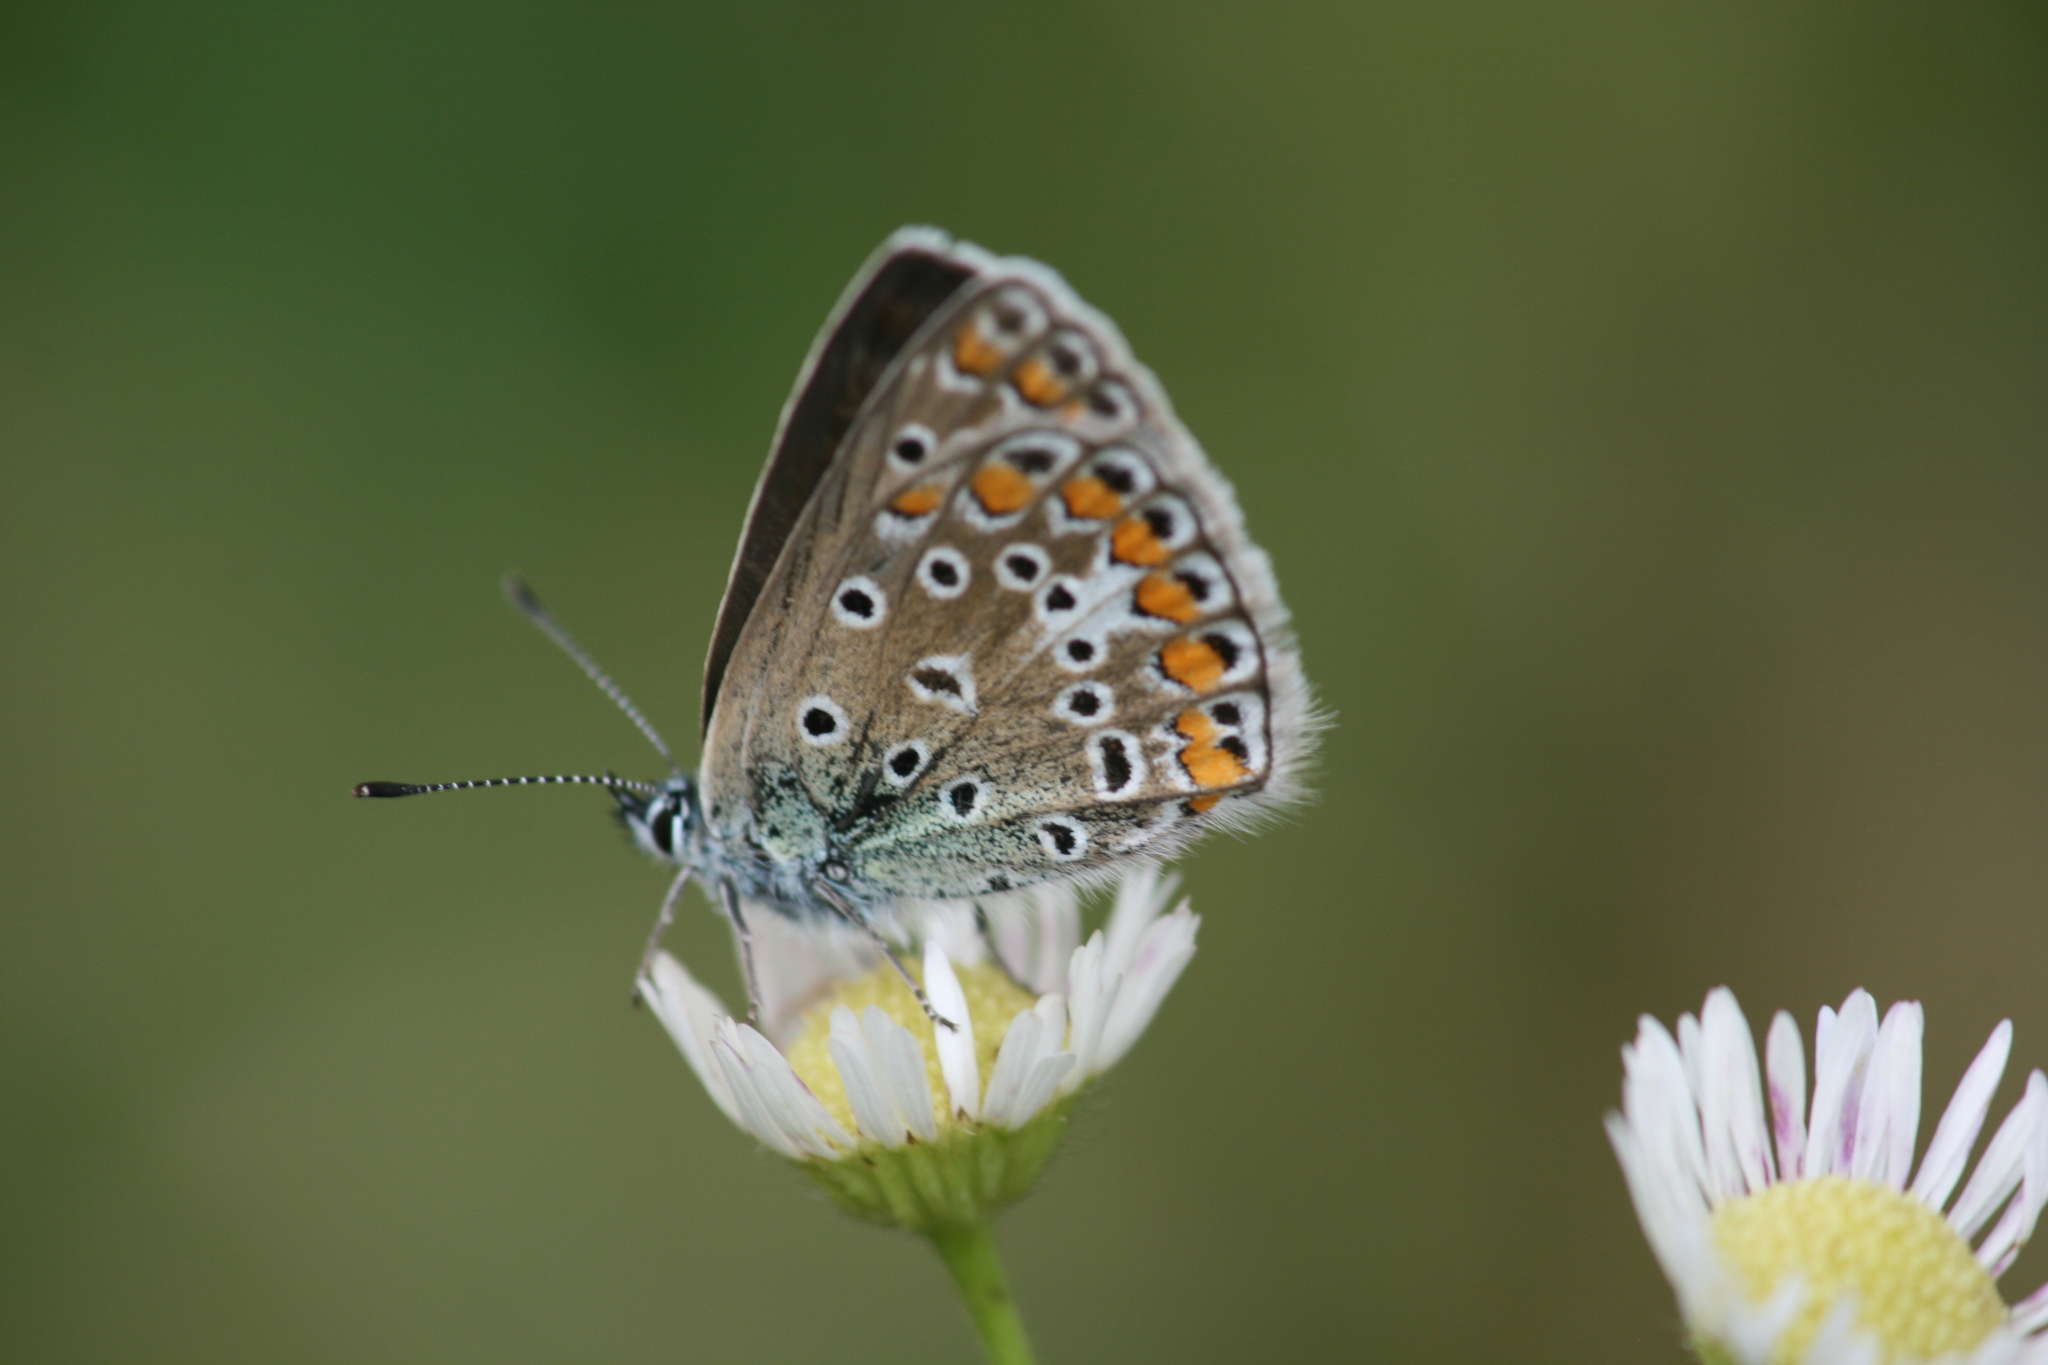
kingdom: Animalia
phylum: Arthropoda
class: Insecta
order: Lepidoptera
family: Lycaenidae
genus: Polyommatus
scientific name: Polyommatus icarus
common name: Common blue
